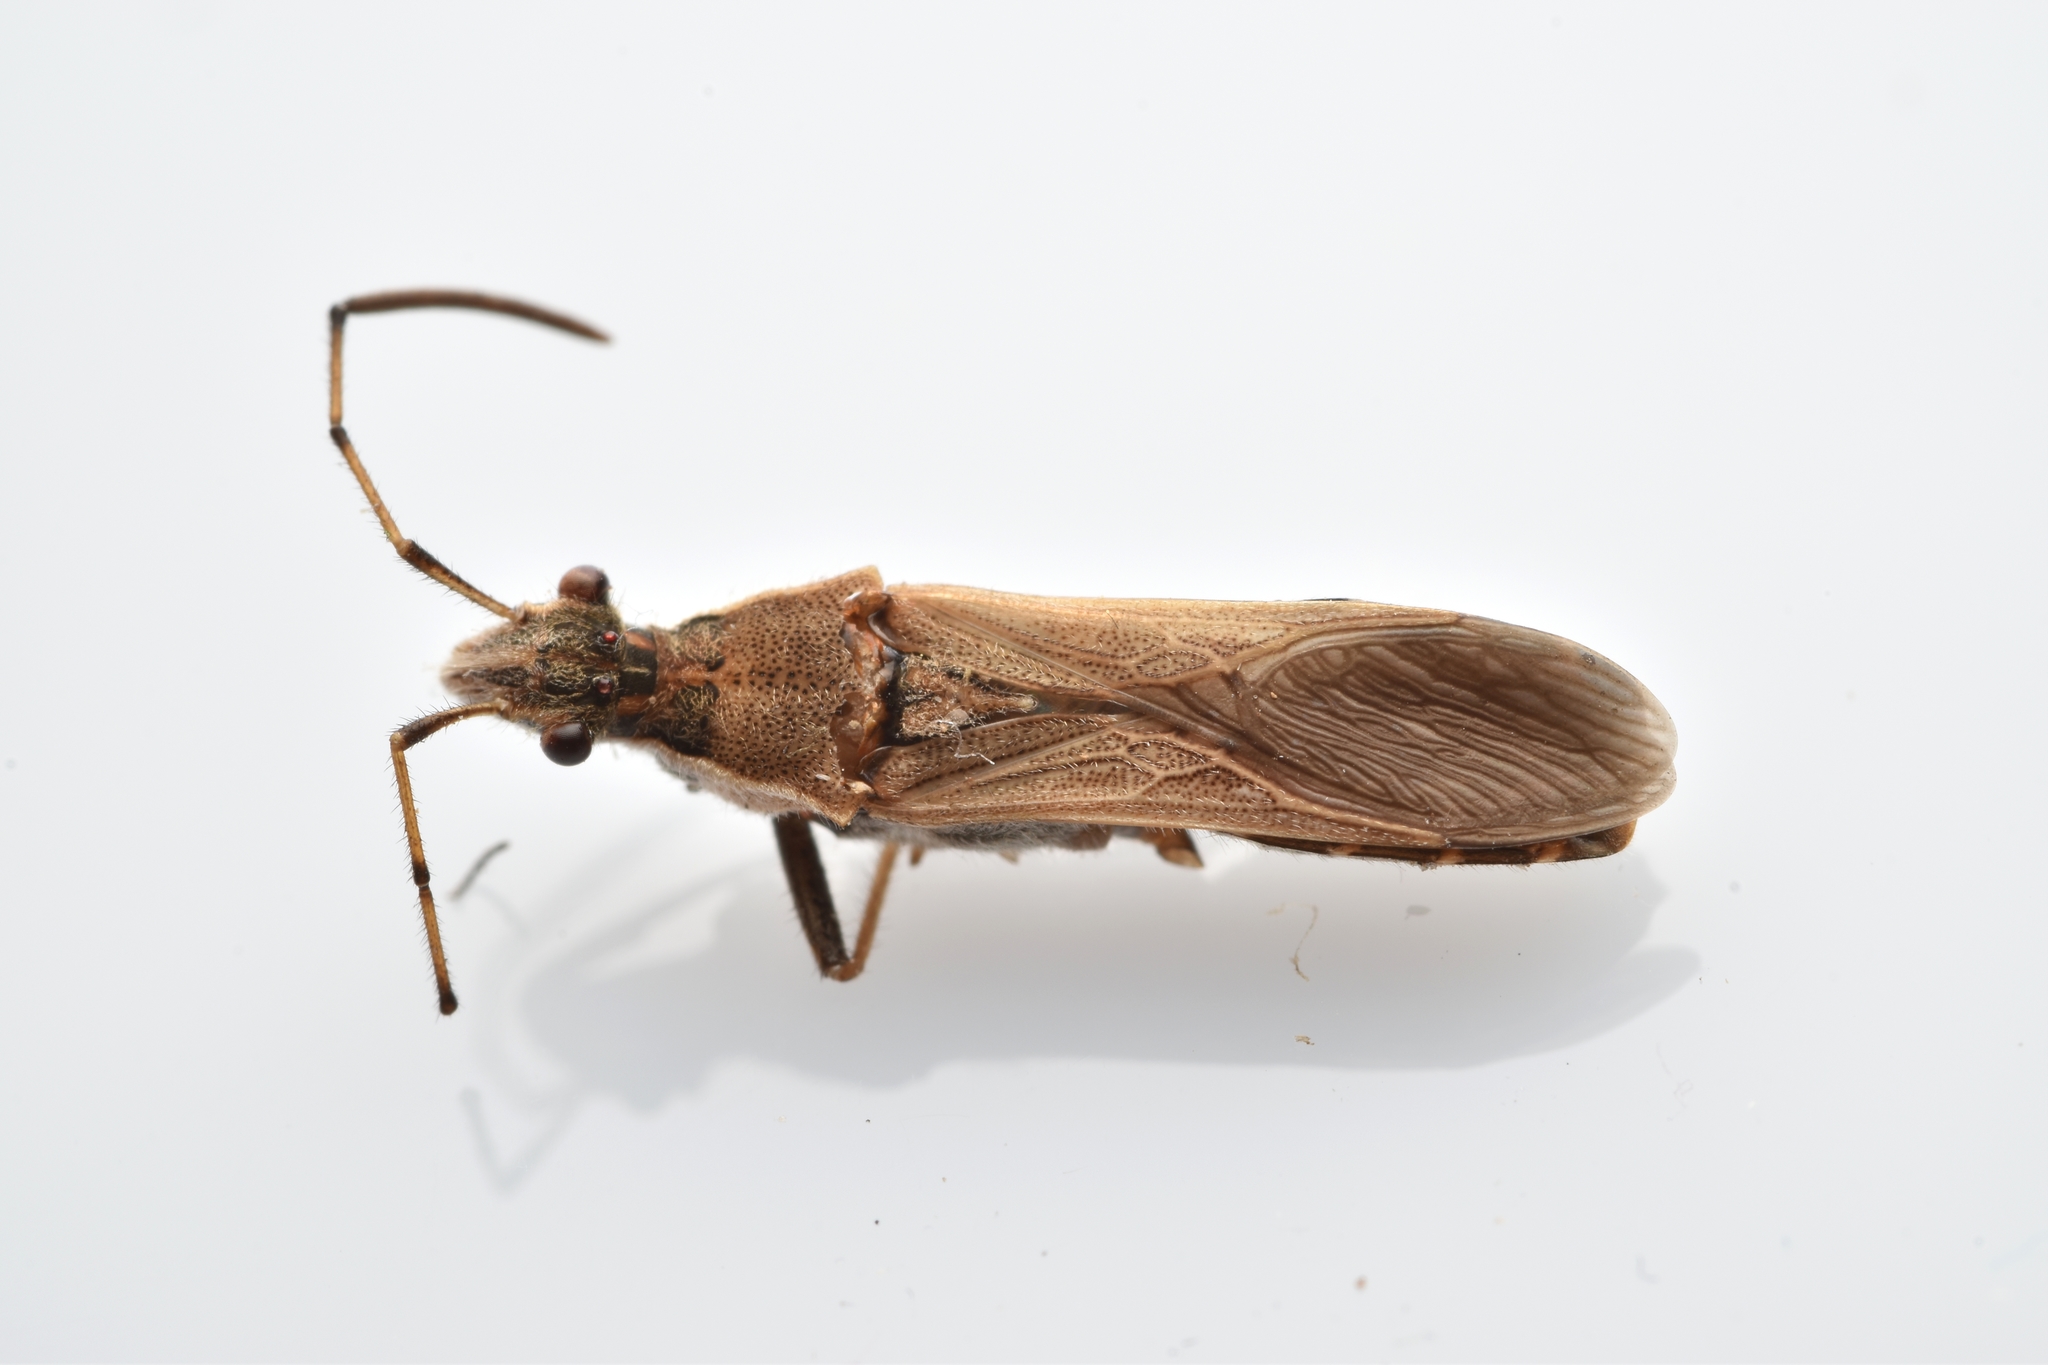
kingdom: Animalia
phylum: Arthropoda
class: Insecta
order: Hemiptera
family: Alydidae
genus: Alydus
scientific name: Alydus pilosulus
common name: Broad-headed bug
